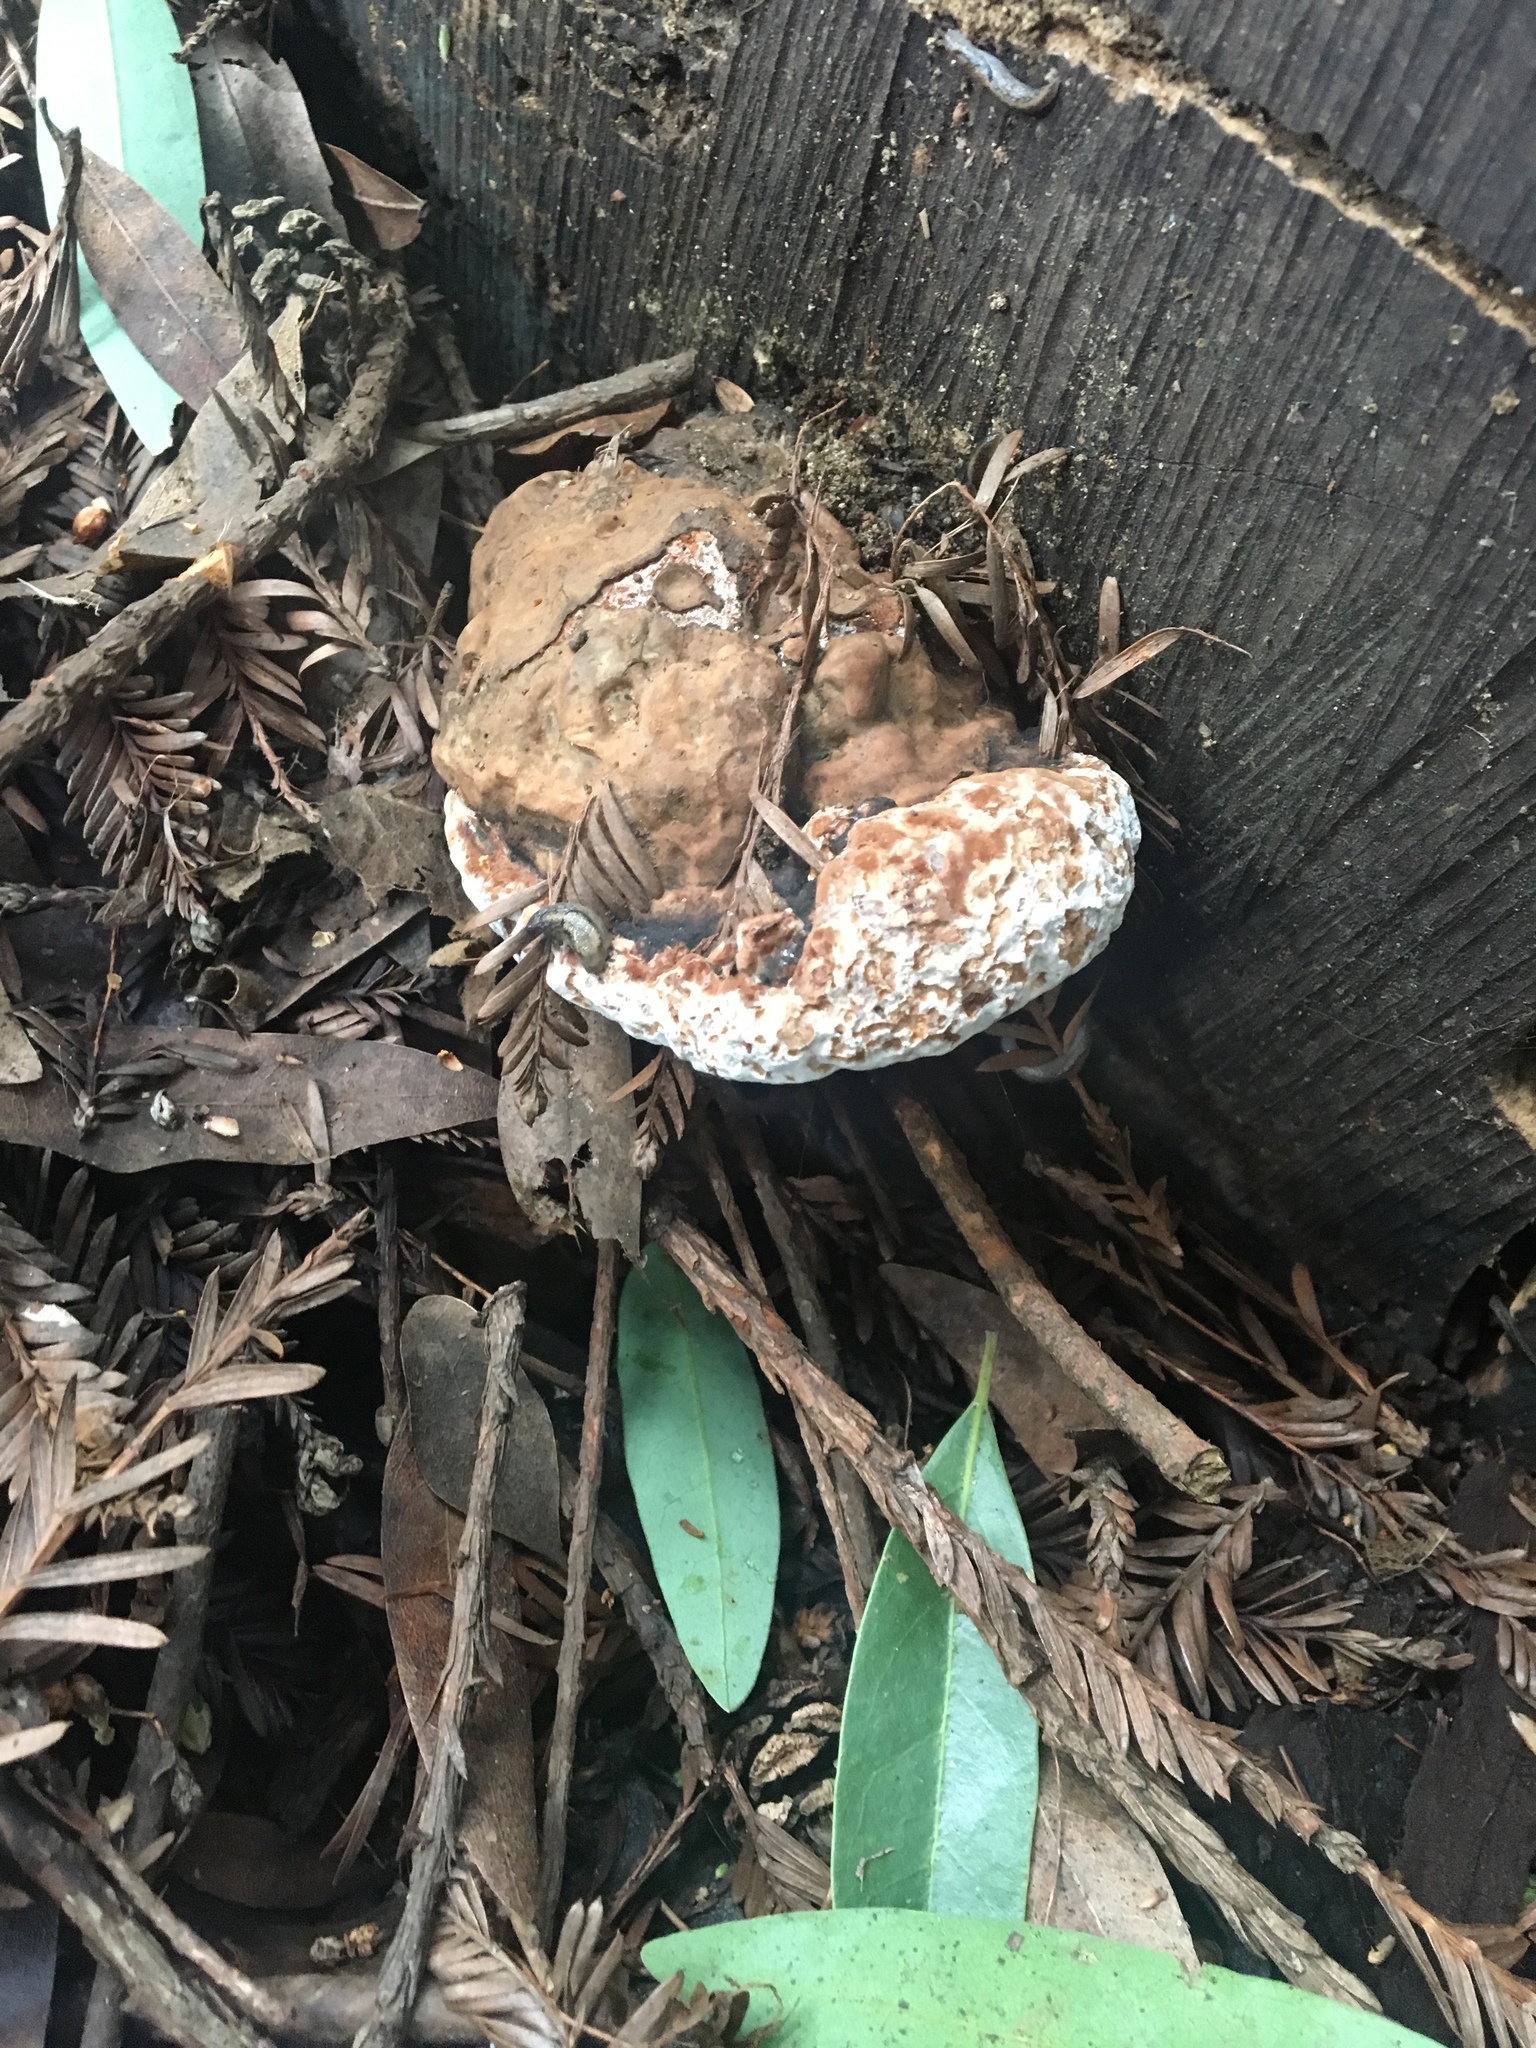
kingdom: Fungi
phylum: Basidiomycota
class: Agaricomycetes
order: Polyporales
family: Polyporaceae
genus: Ganoderma
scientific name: Ganoderma brownii
